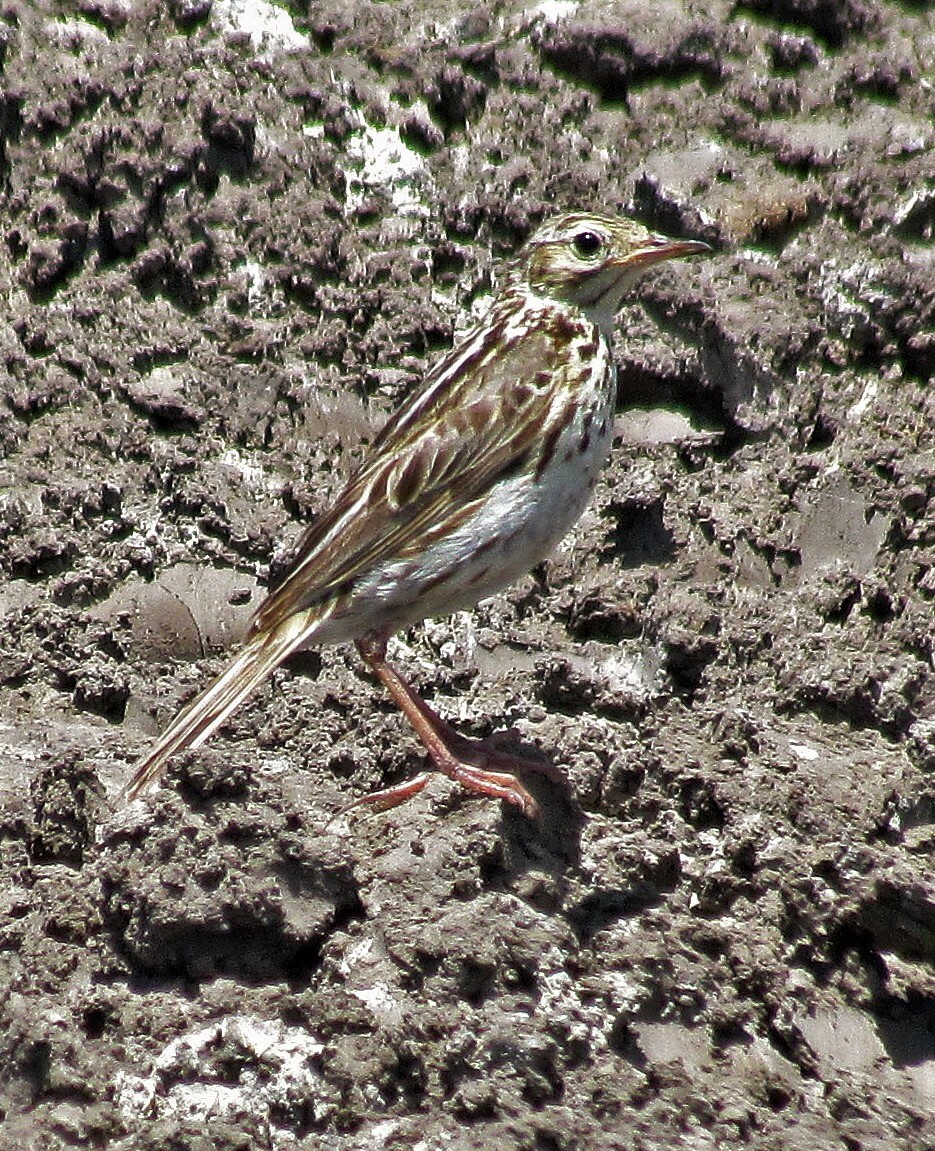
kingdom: Animalia
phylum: Chordata
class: Aves
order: Passeriformes
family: Motacillidae
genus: Anthus
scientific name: Anthus correndera
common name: Correndera pipit
